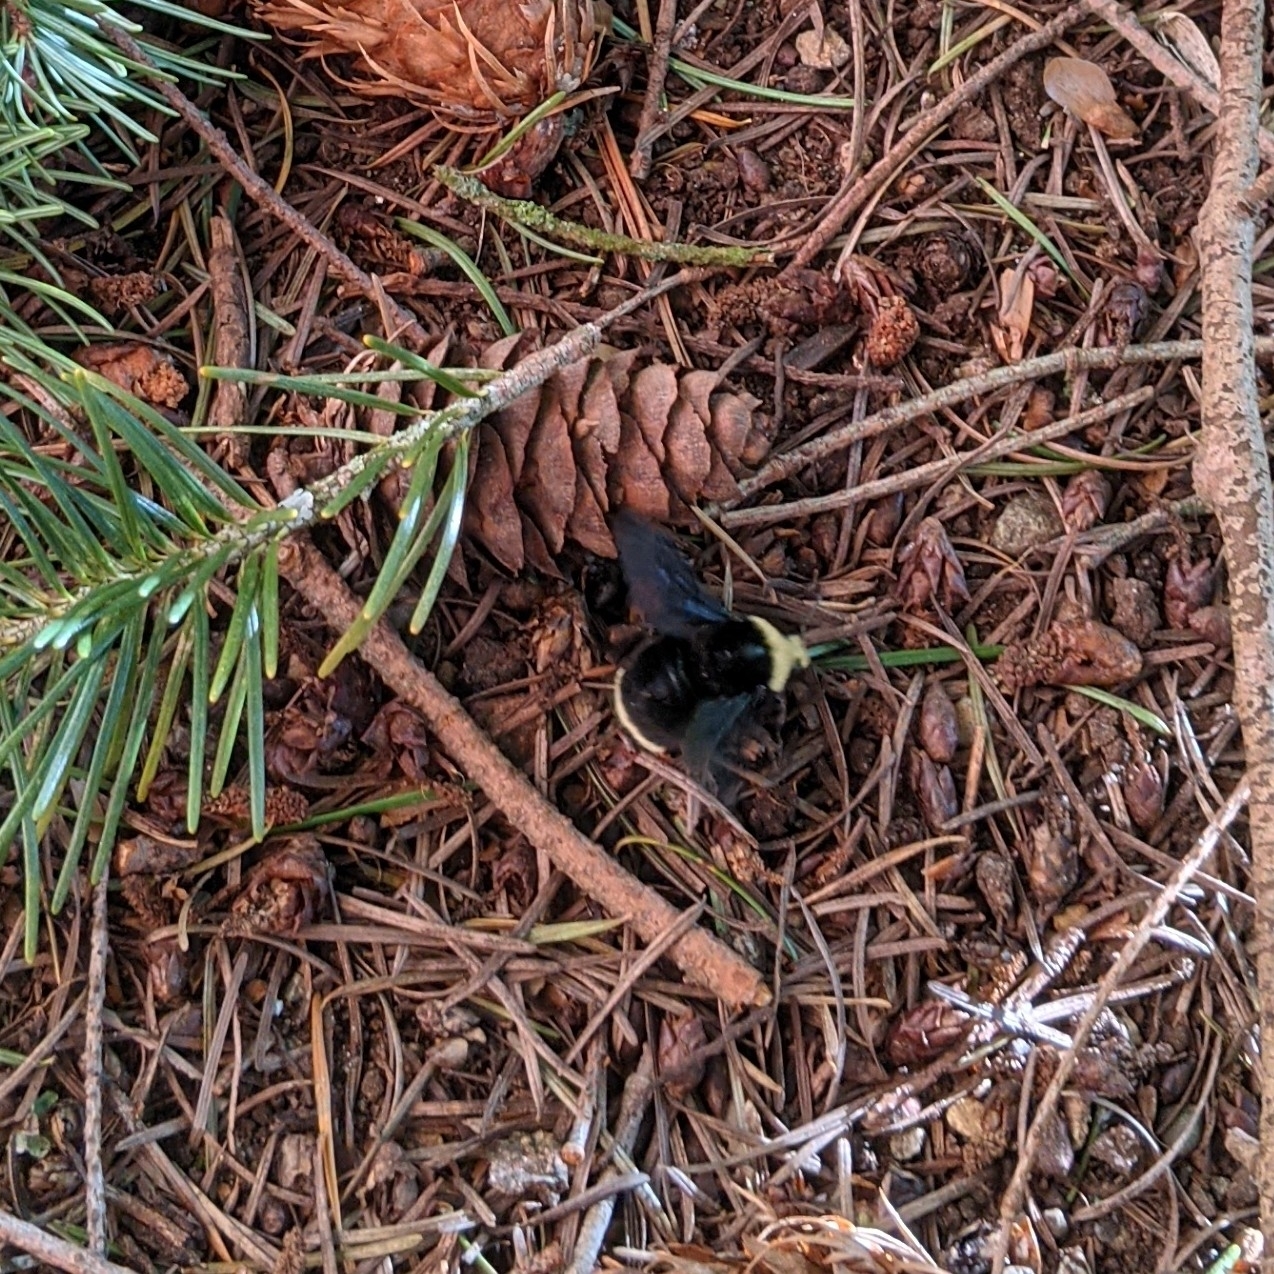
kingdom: Animalia
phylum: Arthropoda
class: Insecta
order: Hymenoptera
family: Apidae
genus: Bombus
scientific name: Bombus vosnesenskii
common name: Vosnesensky bumble bee
